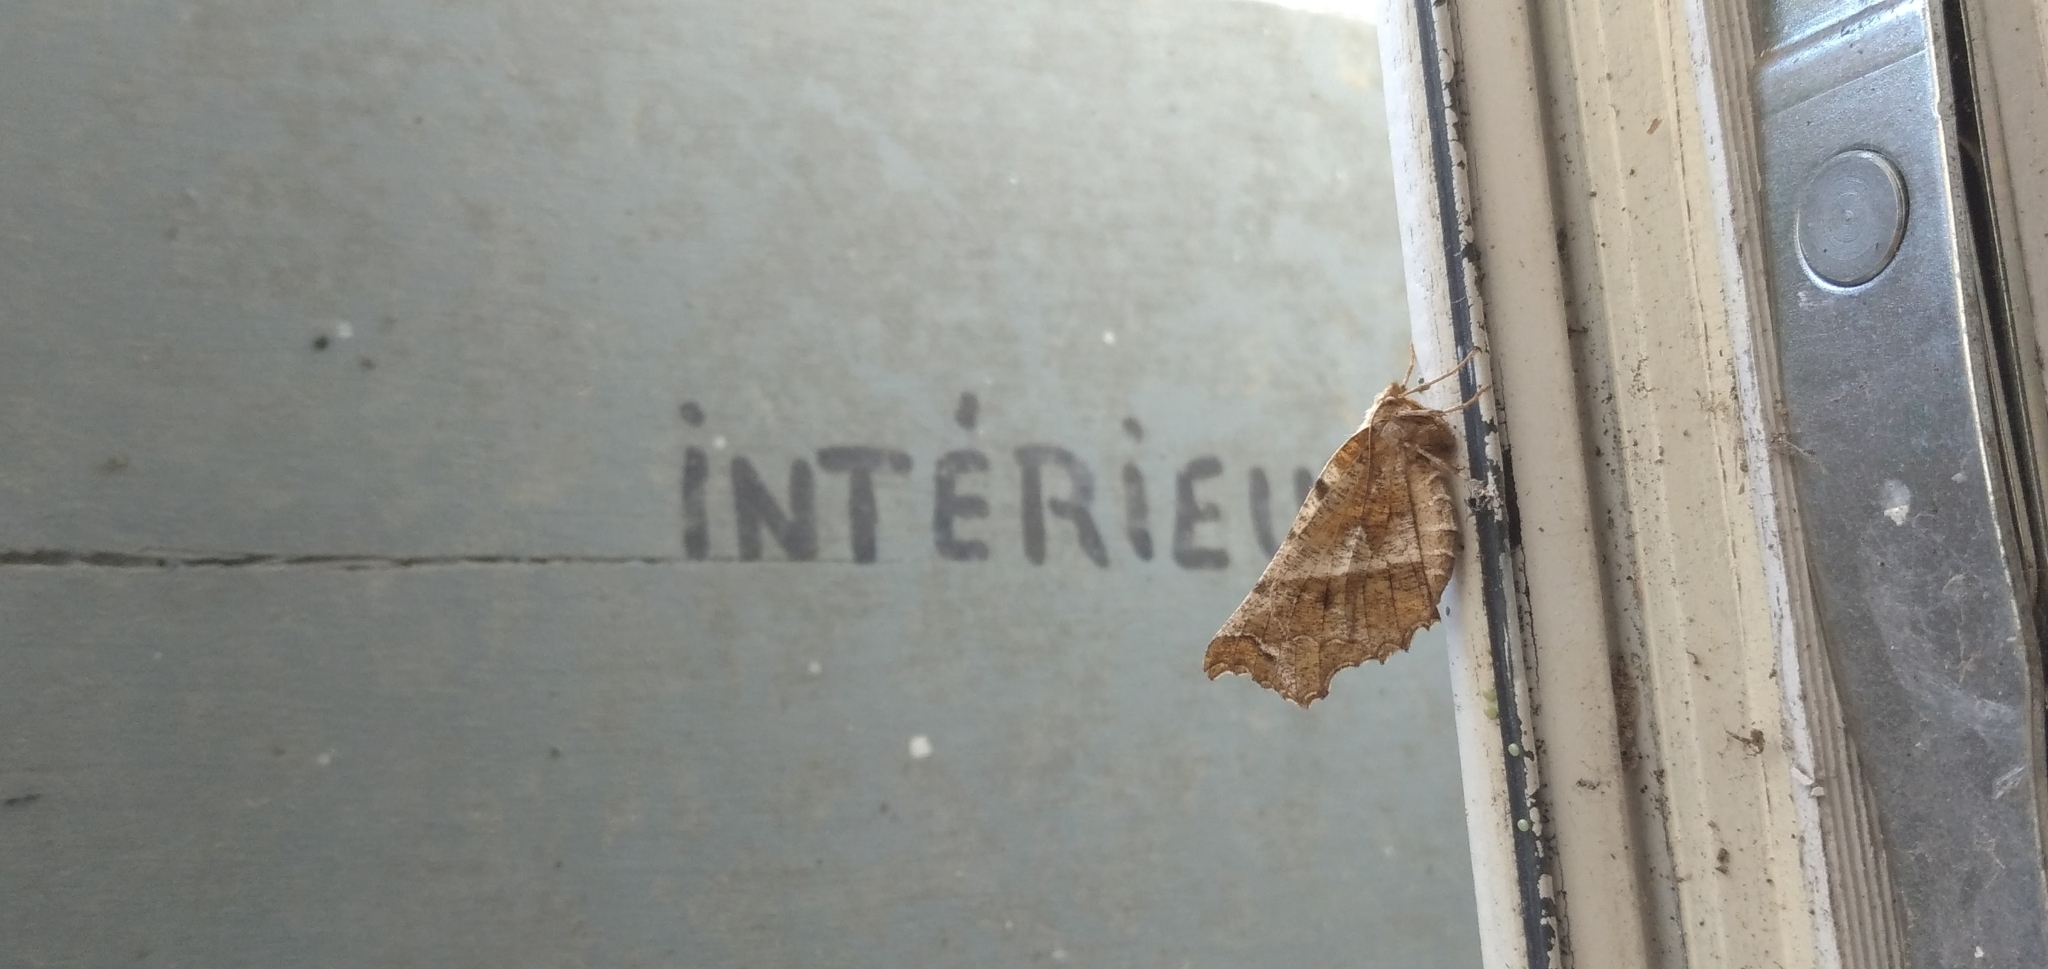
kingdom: Animalia
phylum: Arthropoda
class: Insecta
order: Lepidoptera
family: Geometridae
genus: Selenia
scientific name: Selenia dentaria
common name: Early thorn
